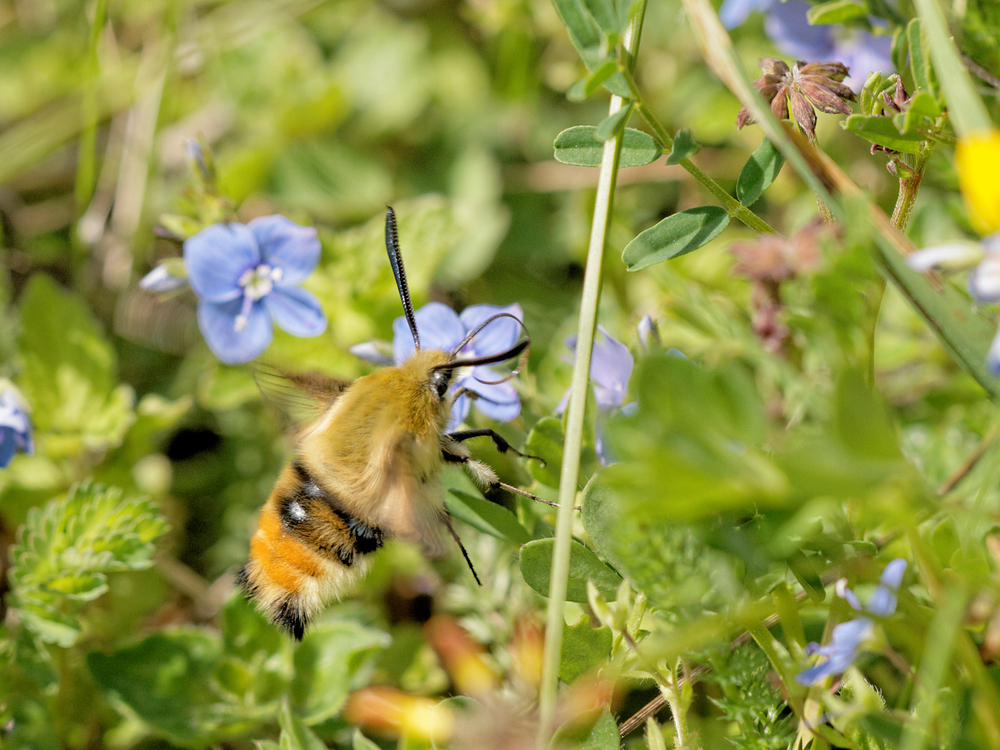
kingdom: Animalia
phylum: Arthropoda
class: Insecta
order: Lepidoptera
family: Sphingidae
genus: Hemaris
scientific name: Hemaris tityus
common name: Narrow-bordered bee hawk-moth
